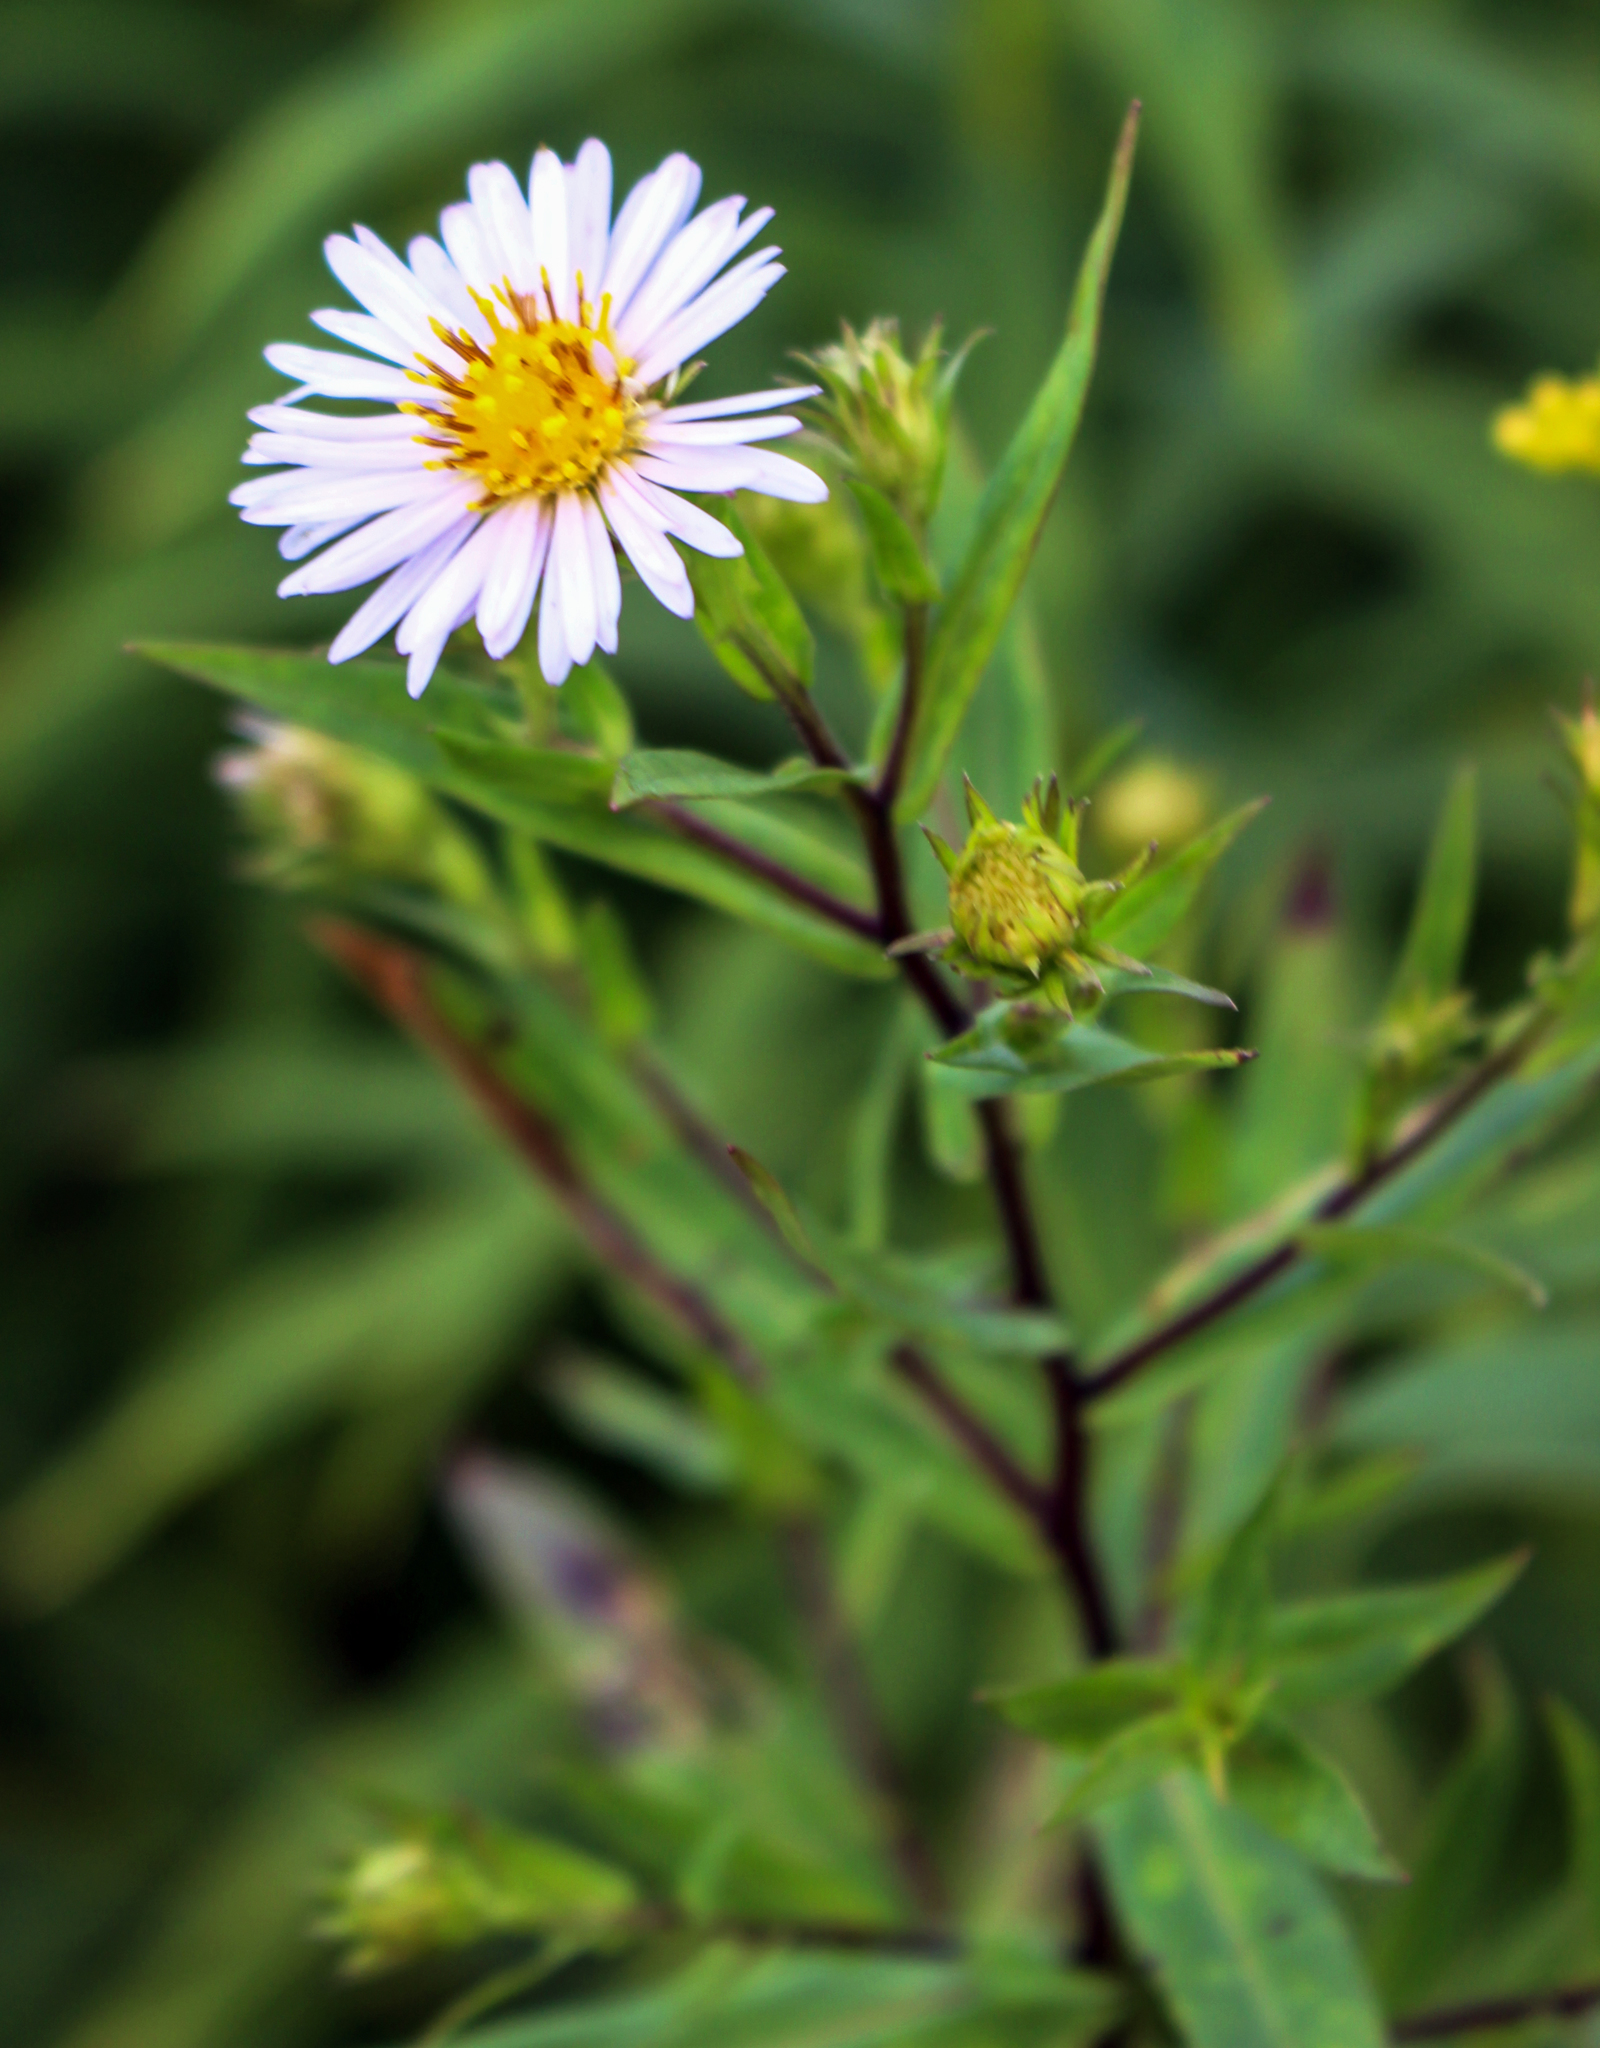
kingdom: Plantae
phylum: Tracheophyta
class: Magnoliopsida
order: Asterales
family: Asteraceae
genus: Symphyotrichum
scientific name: Symphyotrichum firmum
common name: Shining aster
